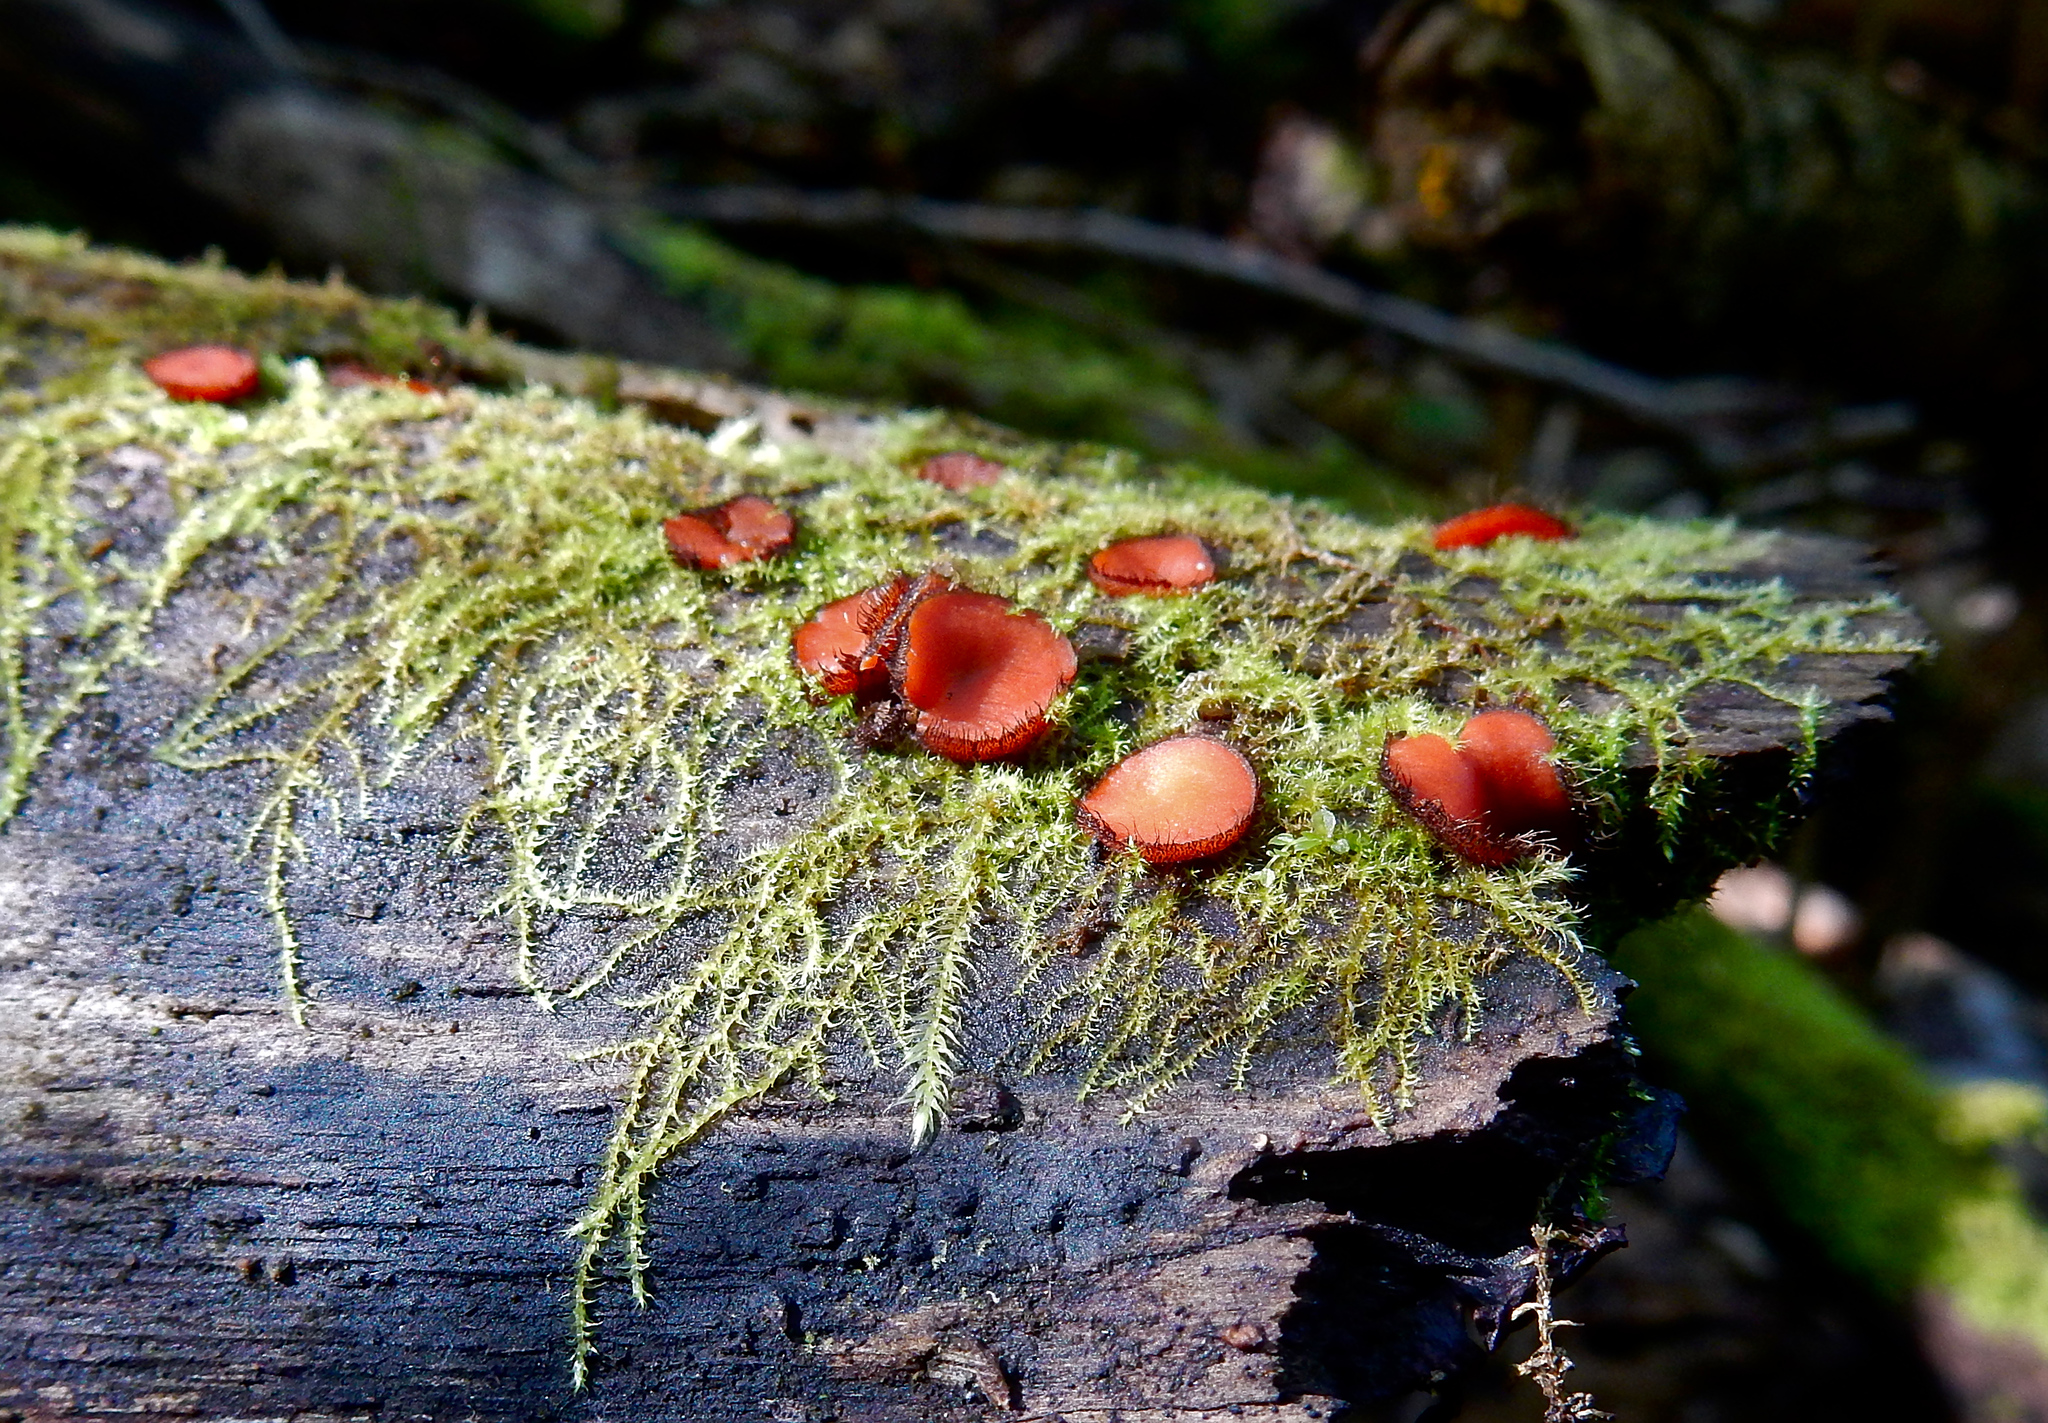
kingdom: Fungi
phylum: Ascomycota
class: Pezizomycetes
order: Pezizales
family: Pyronemataceae
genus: Scutellinia
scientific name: Scutellinia
